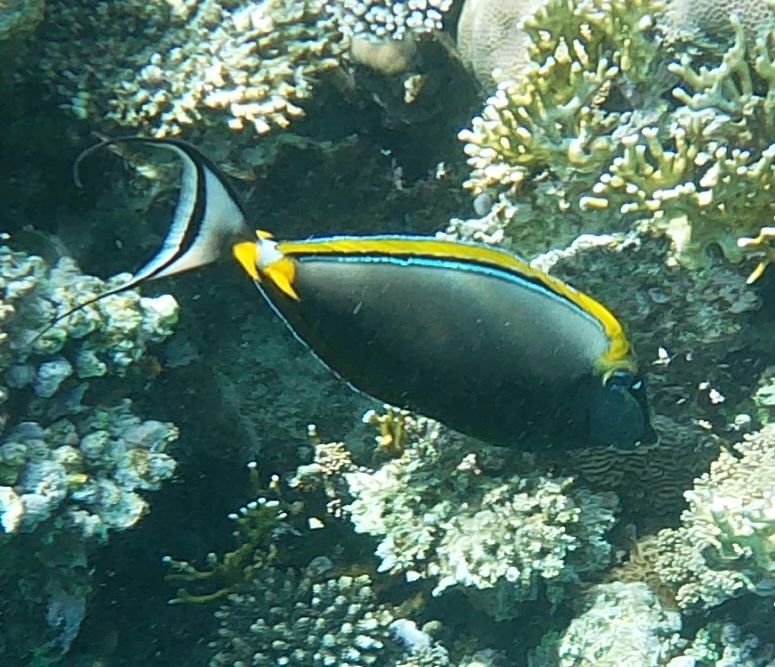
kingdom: Animalia
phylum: Chordata
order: Perciformes
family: Acanthuridae
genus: Naso
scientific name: Naso elegans
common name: Orangespine unicornfish
